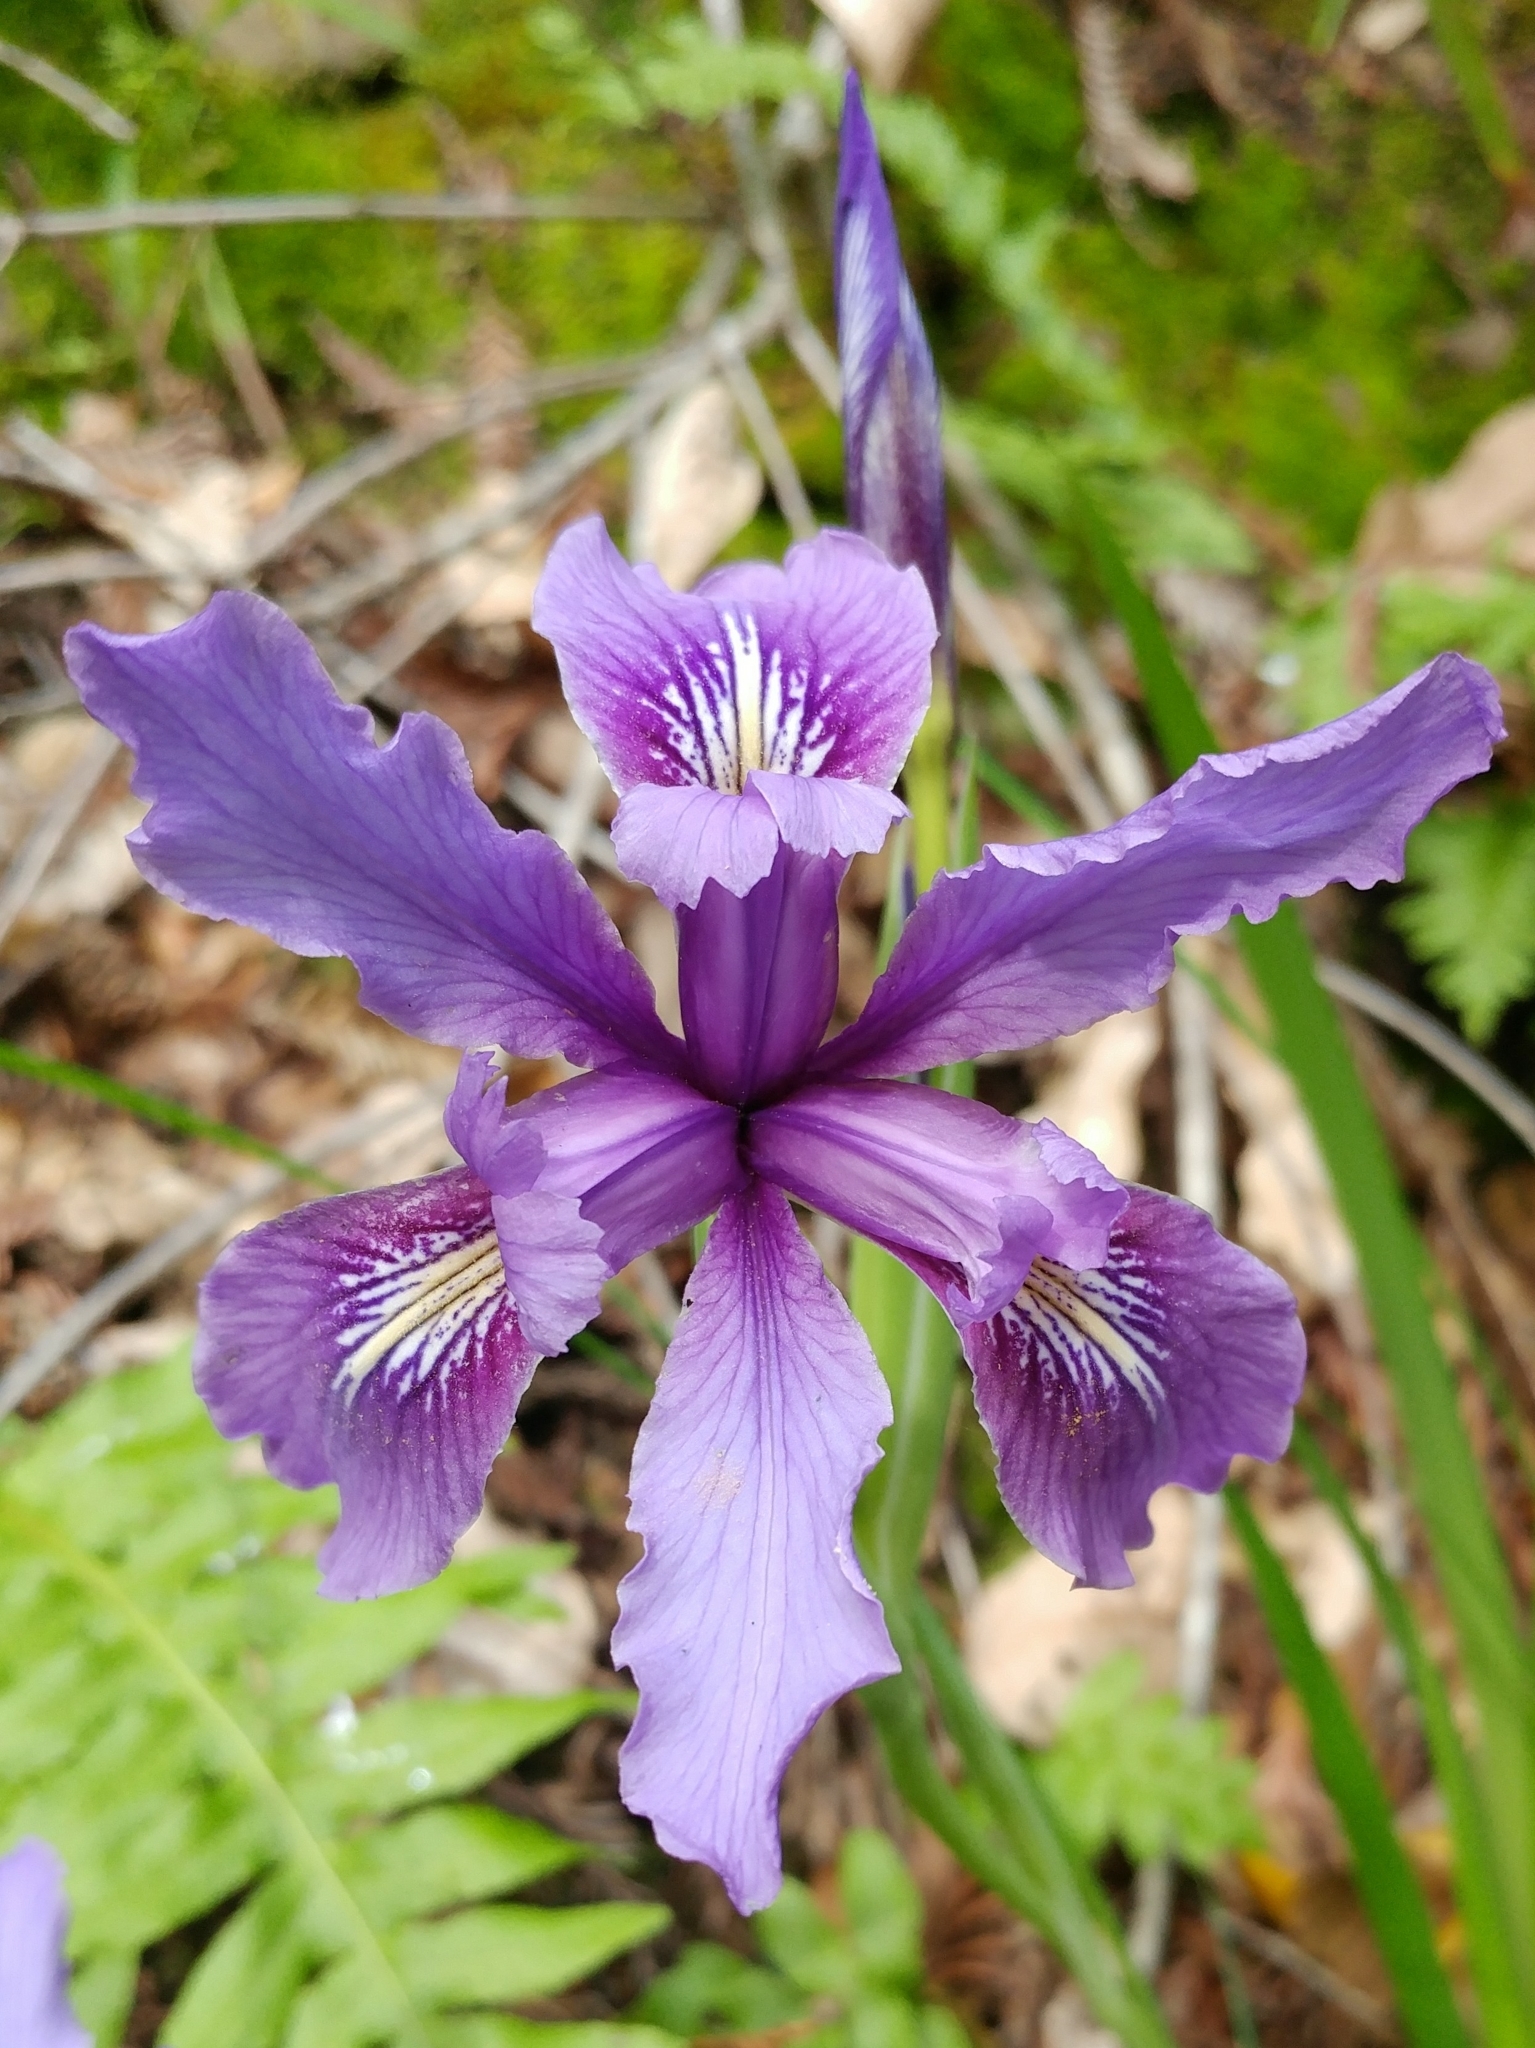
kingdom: Plantae
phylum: Tracheophyta
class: Liliopsida
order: Asparagales
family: Iridaceae
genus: Iris
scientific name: Iris douglasiana
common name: Marin iris
